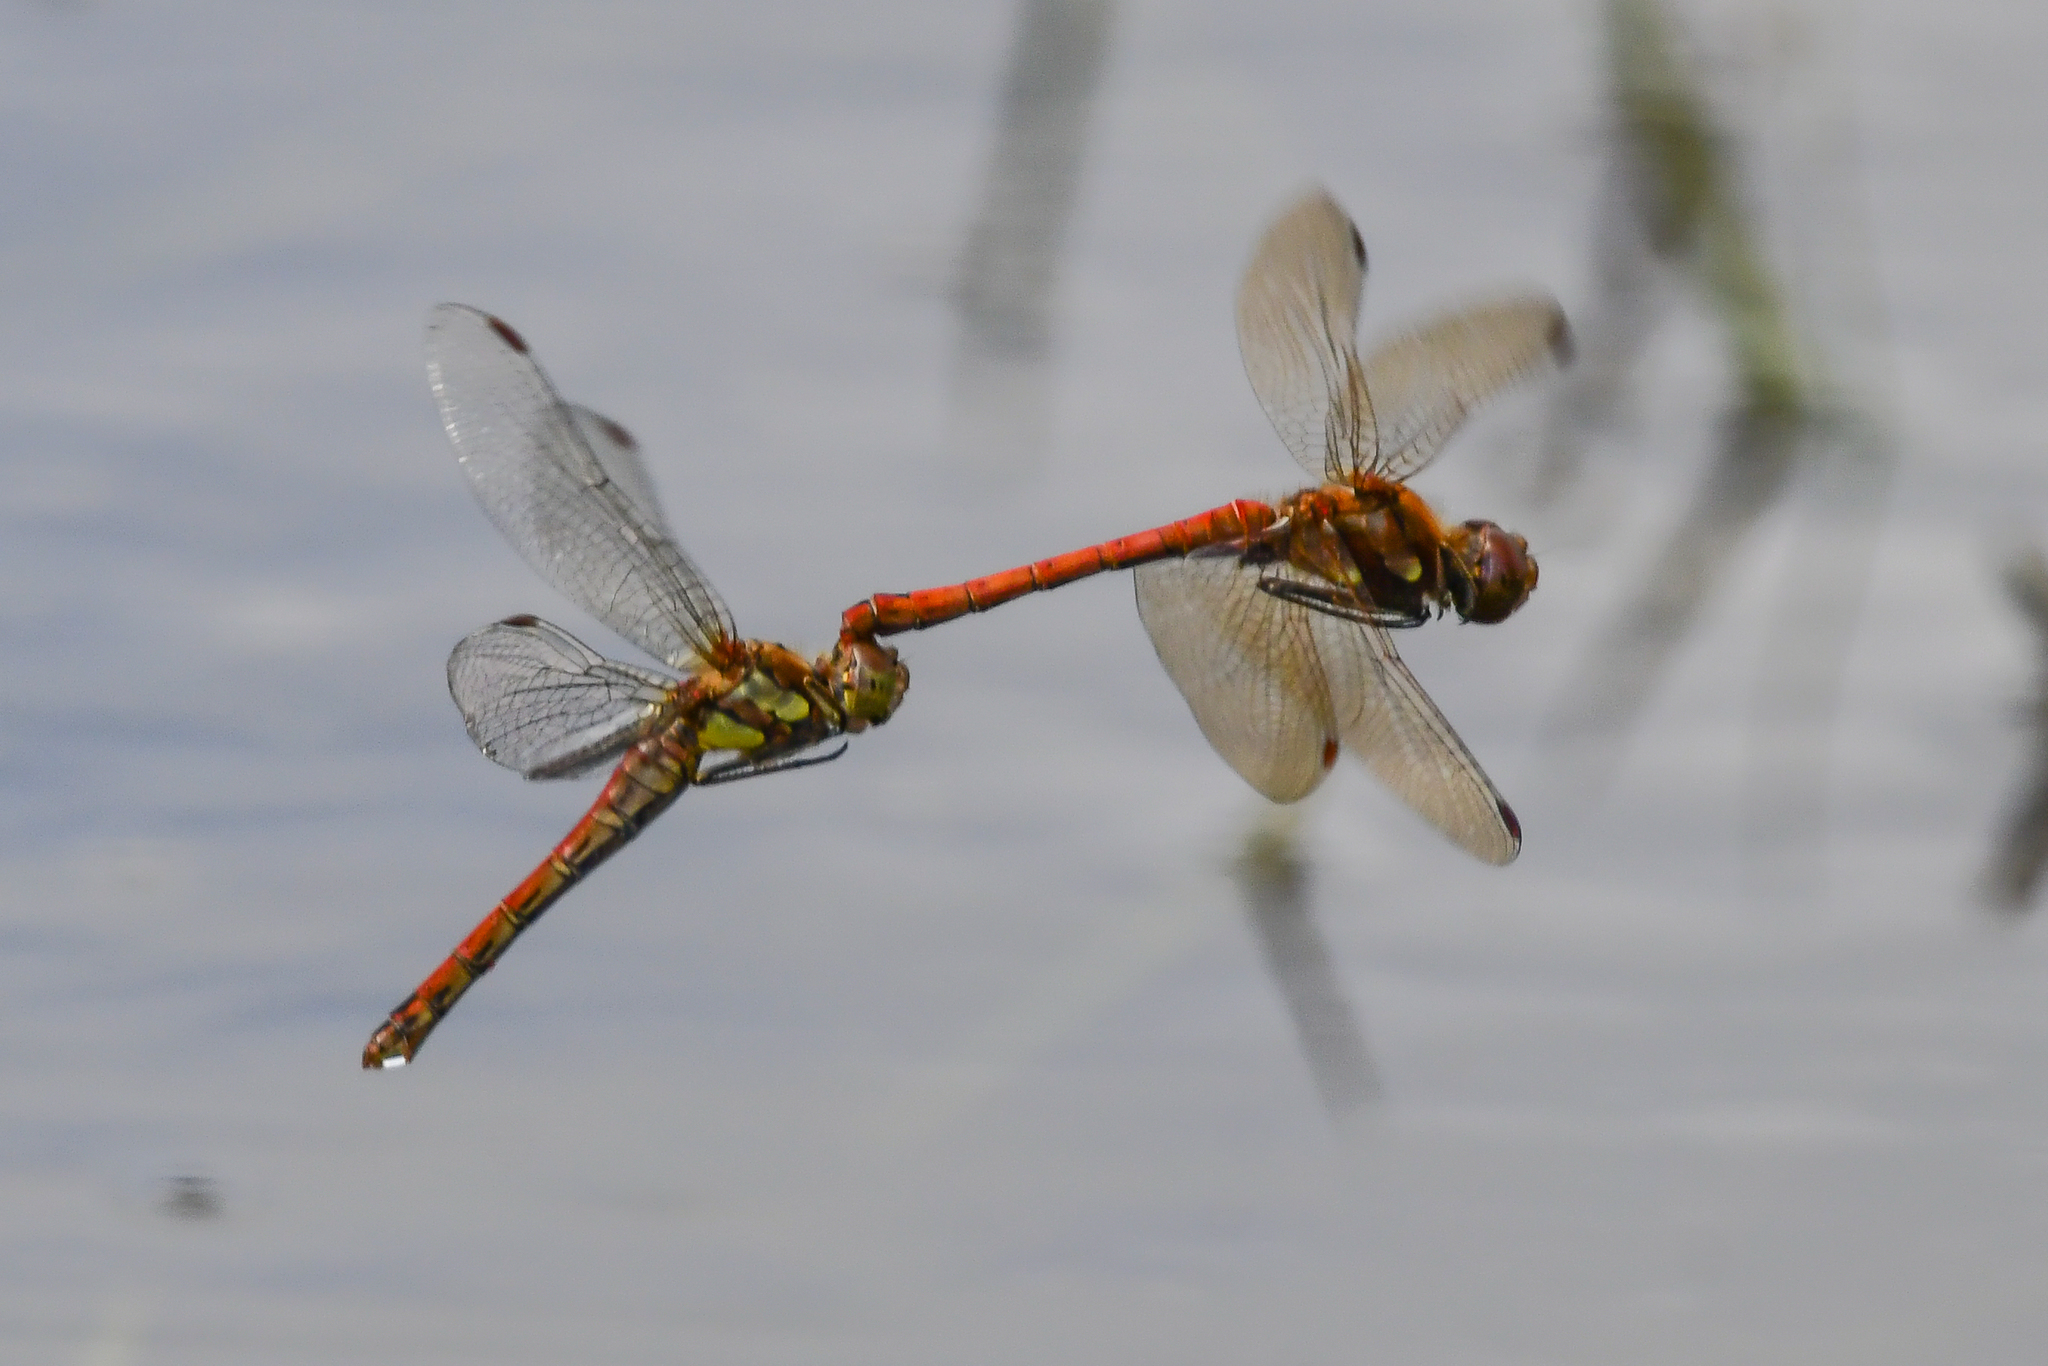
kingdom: Animalia
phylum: Arthropoda
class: Insecta
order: Odonata
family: Libellulidae
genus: Sympetrum
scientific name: Sympetrum striolatum
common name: Common darter
